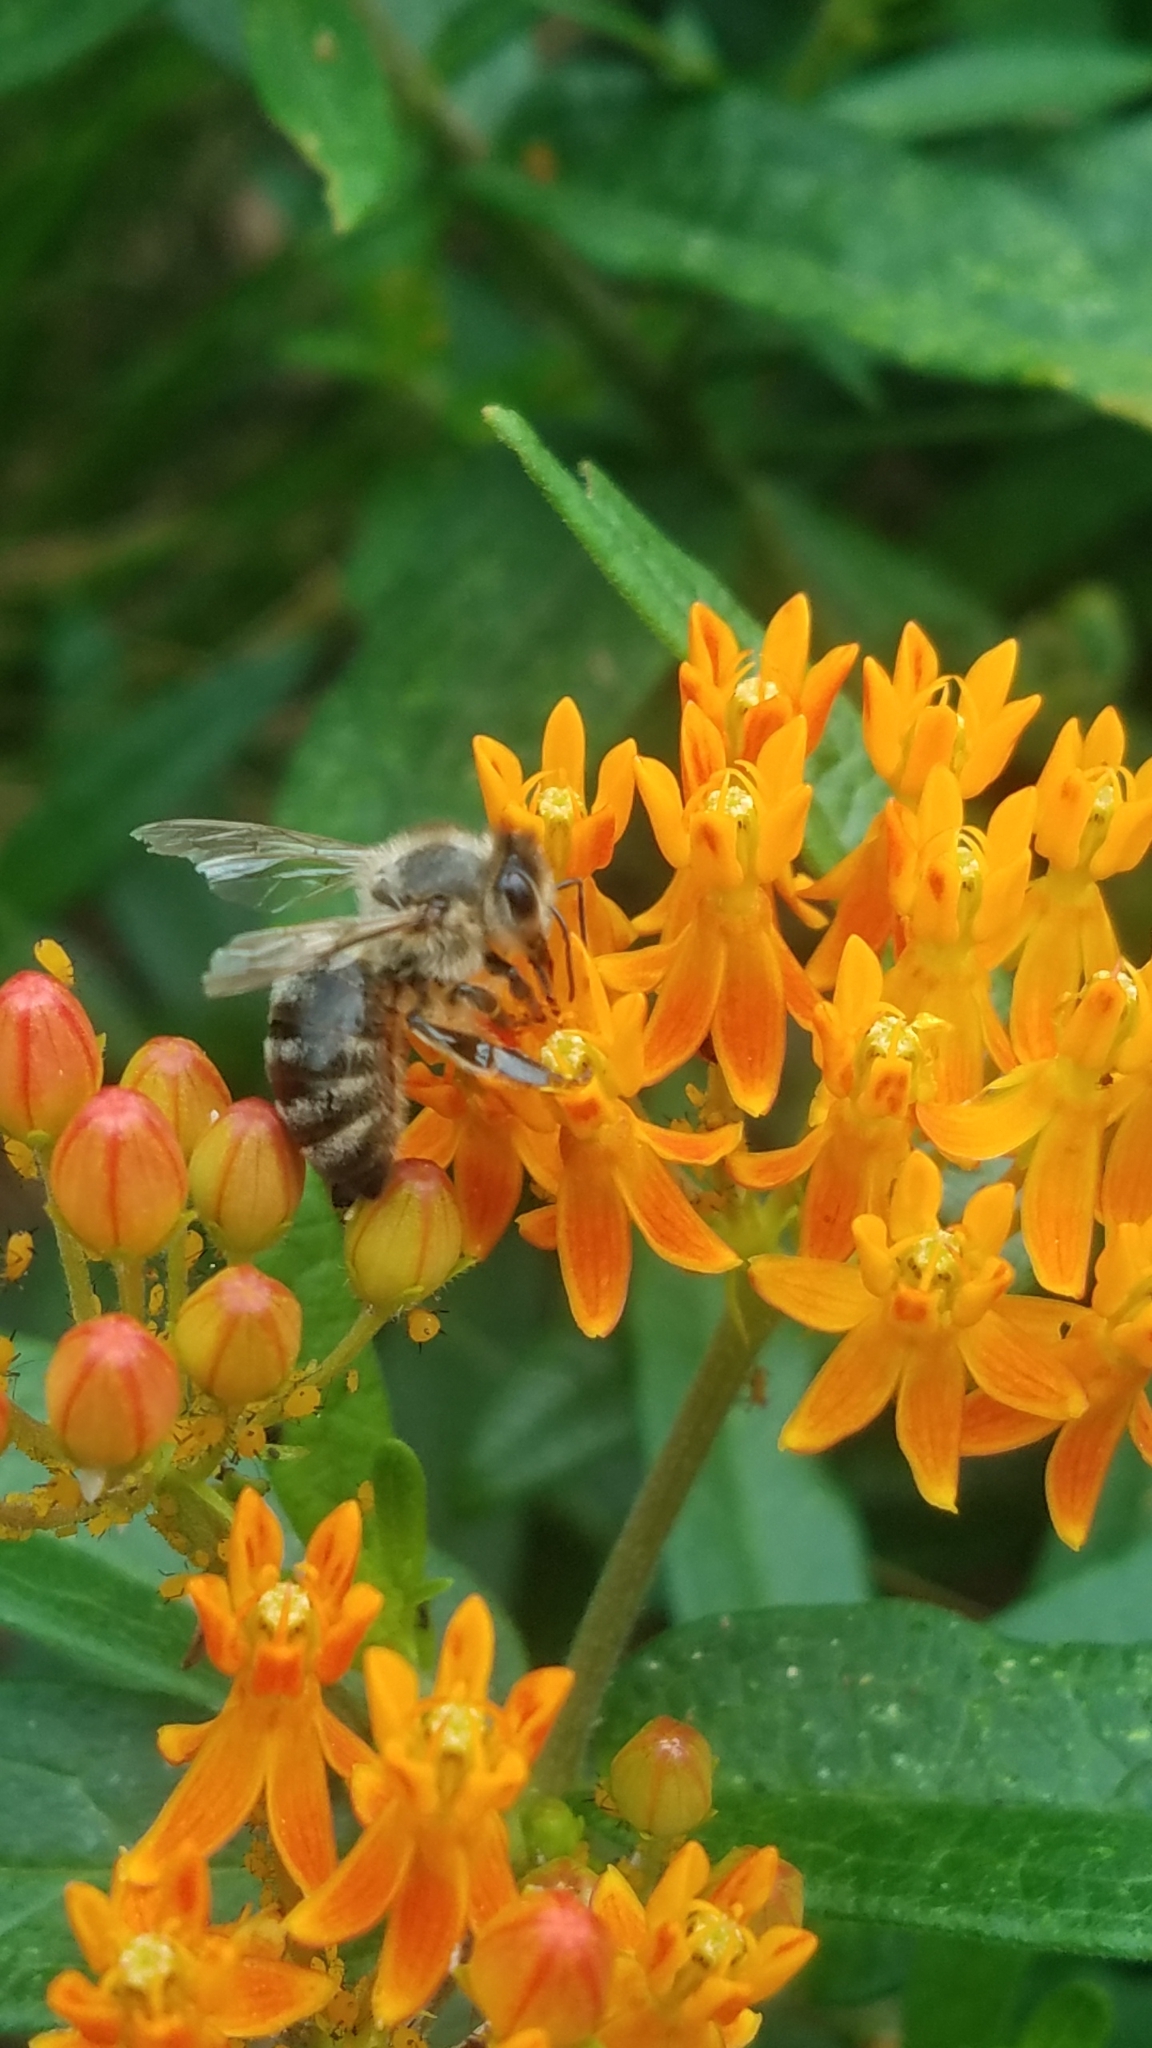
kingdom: Animalia
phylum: Arthropoda
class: Insecta
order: Hymenoptera
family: Apidae
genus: Apis
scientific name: Apis mellifera
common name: Honey bee
